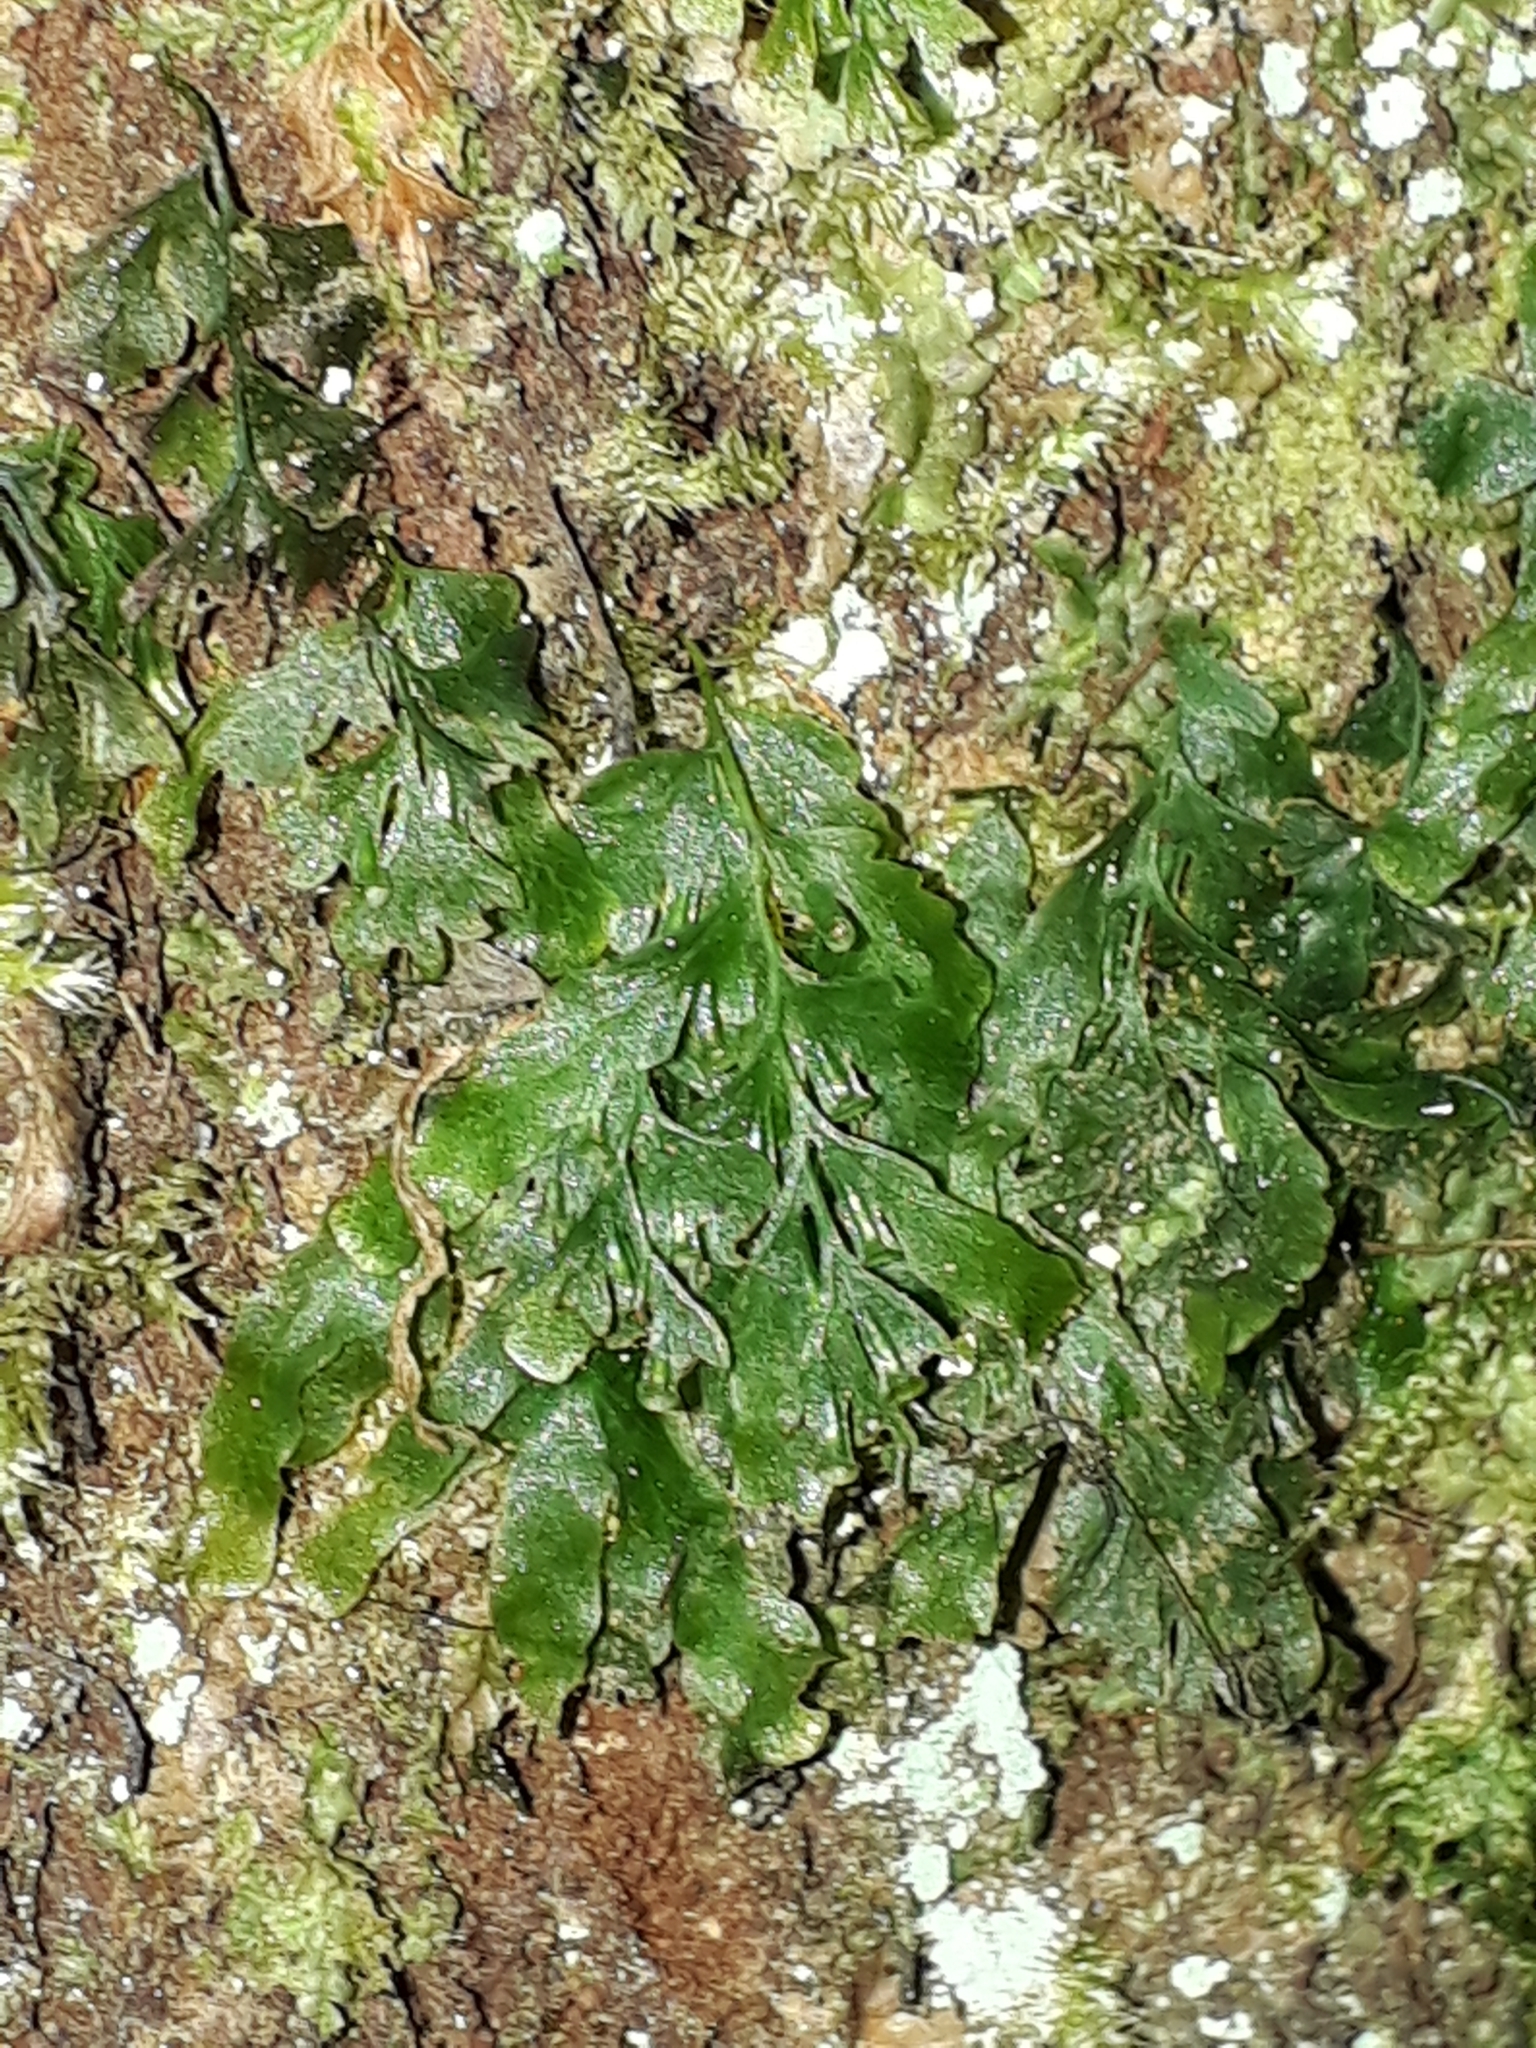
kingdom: Plantae
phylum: Tracheophyta
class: Polypodiopsida
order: Hymenophyllales
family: Hymenophyllaceae
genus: Polyphlebium
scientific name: Polyphlebium venosum
